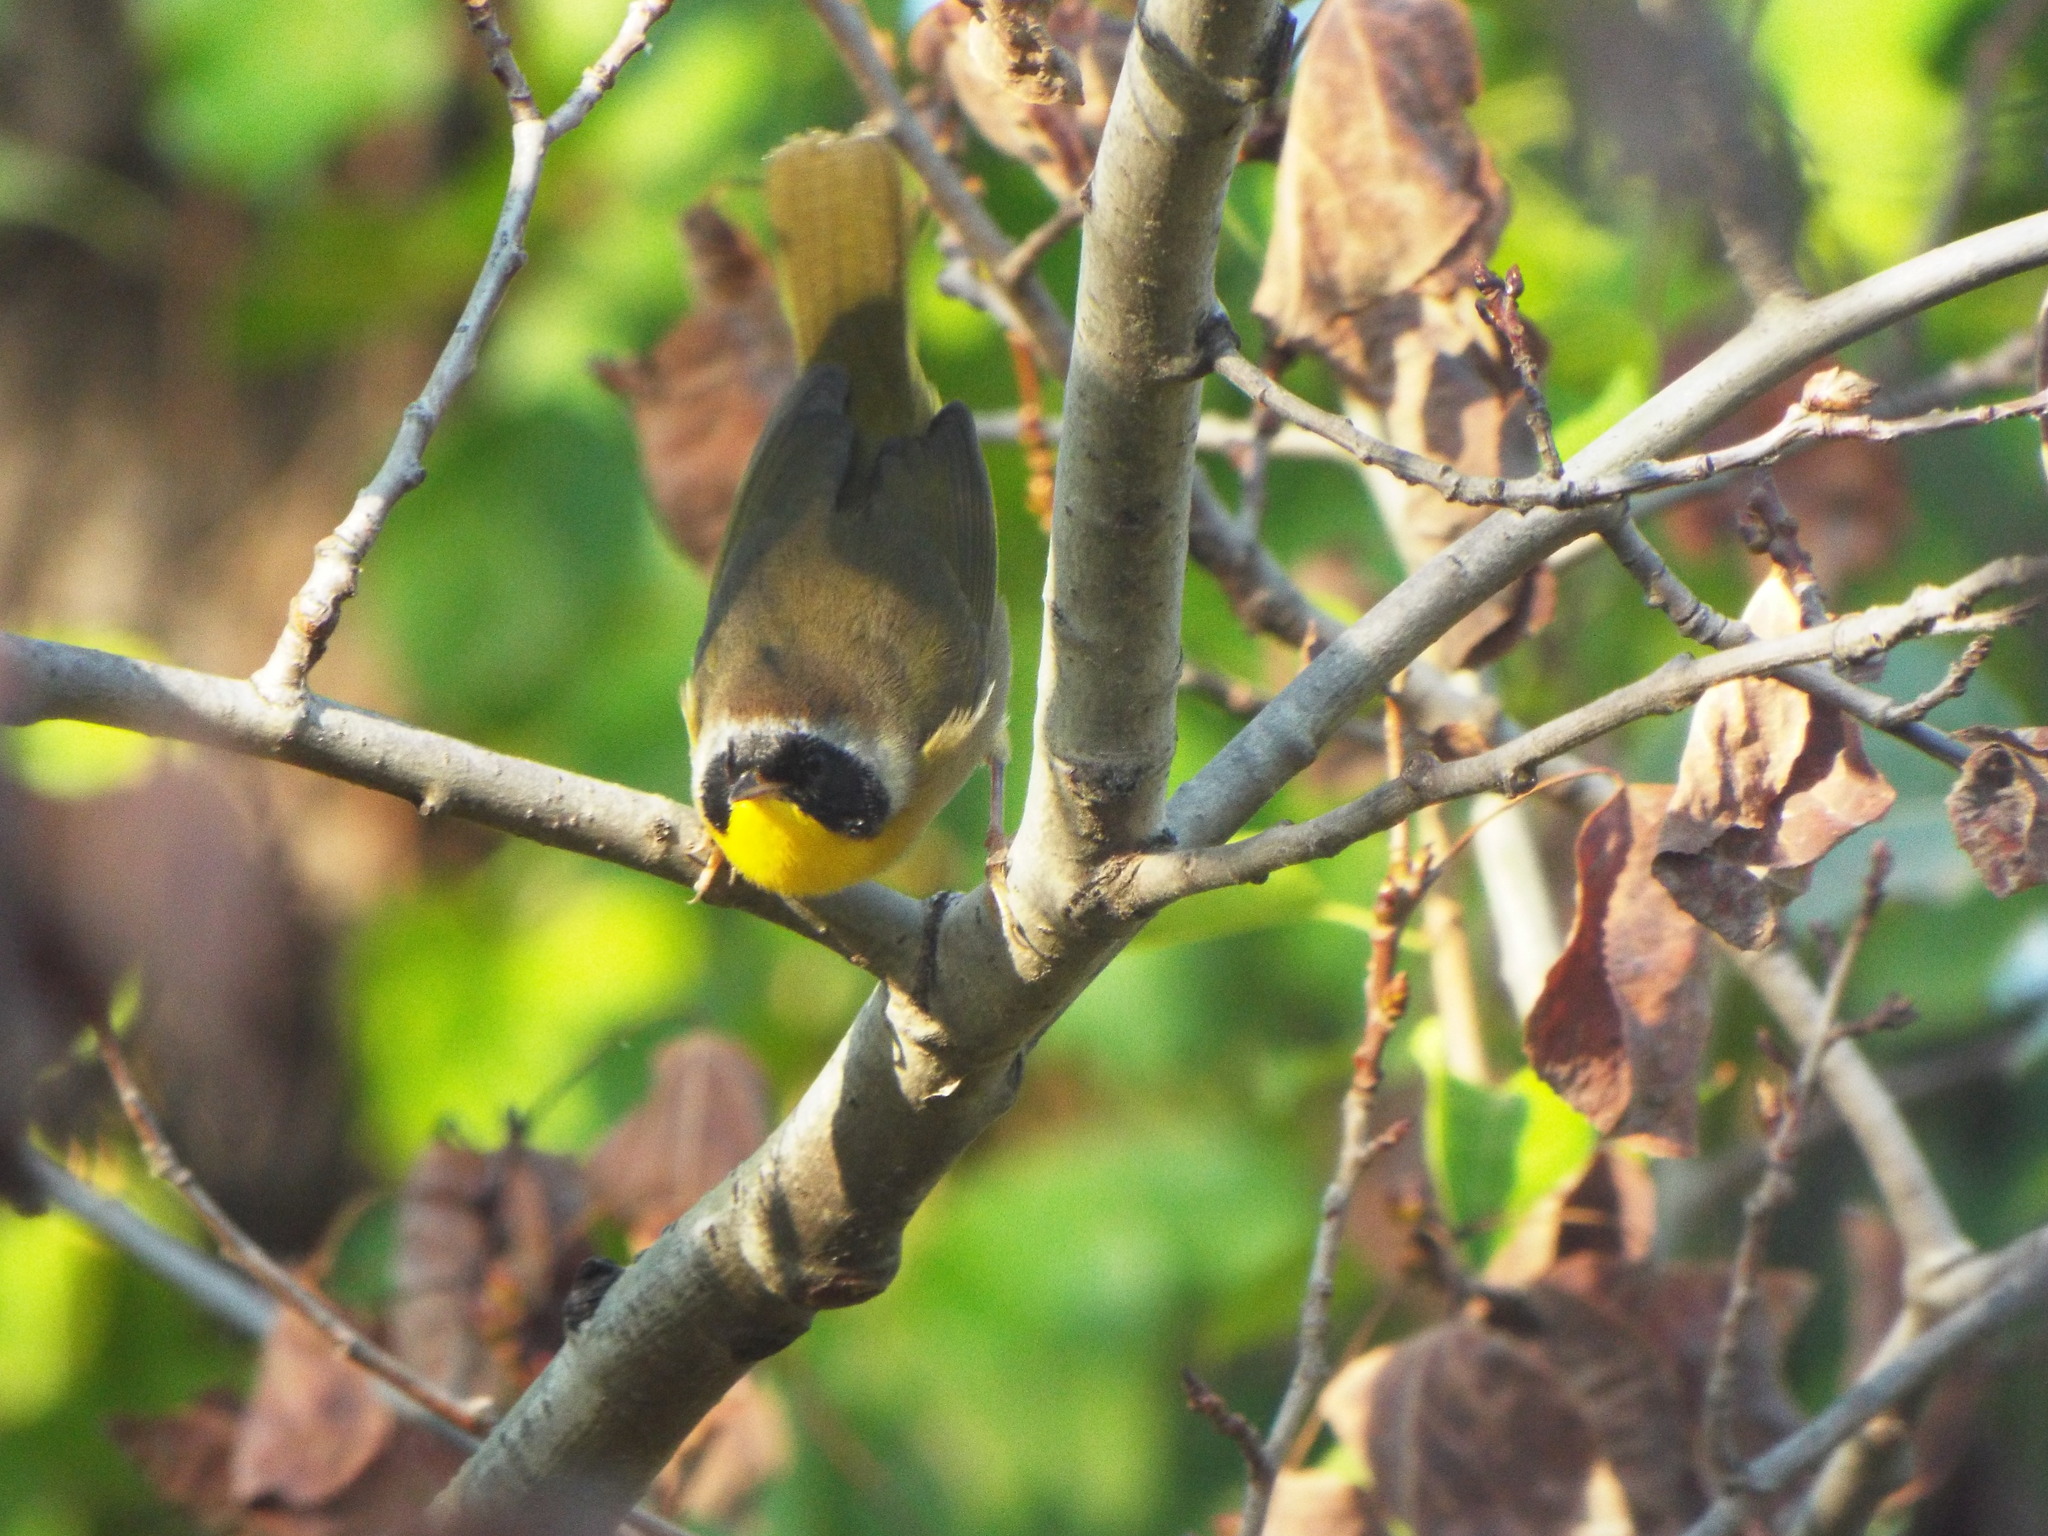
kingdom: Animalia
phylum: Chordata
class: Aves
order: Passeriformes
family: Parulidae
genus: Geothlypis
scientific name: Geothlypis trichas
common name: Common yellowthroat
